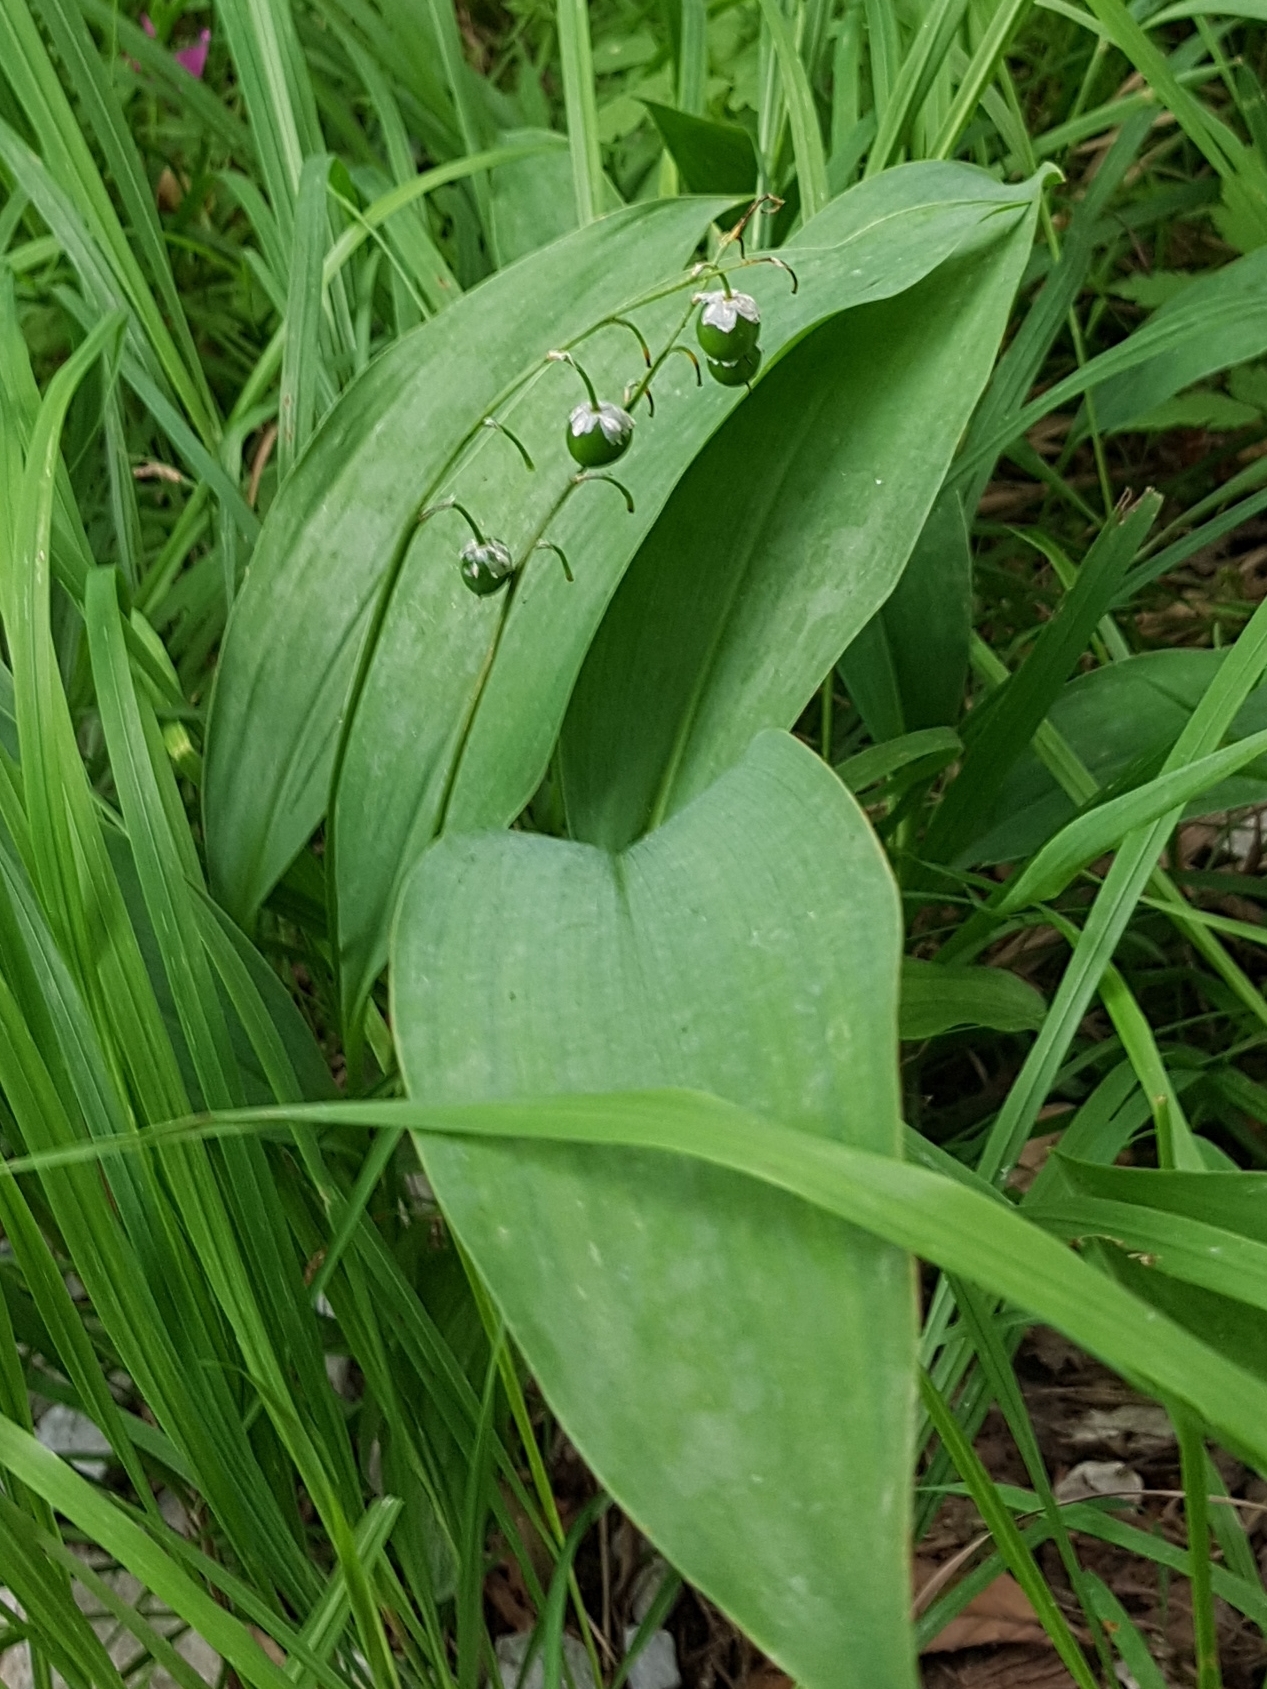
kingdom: Plantae
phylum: Tracheophyta
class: Liliopsida
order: Asparagales
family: Asparagaceae
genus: Convallaria
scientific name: Convallaria majalis
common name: Lily-of-the-valley
